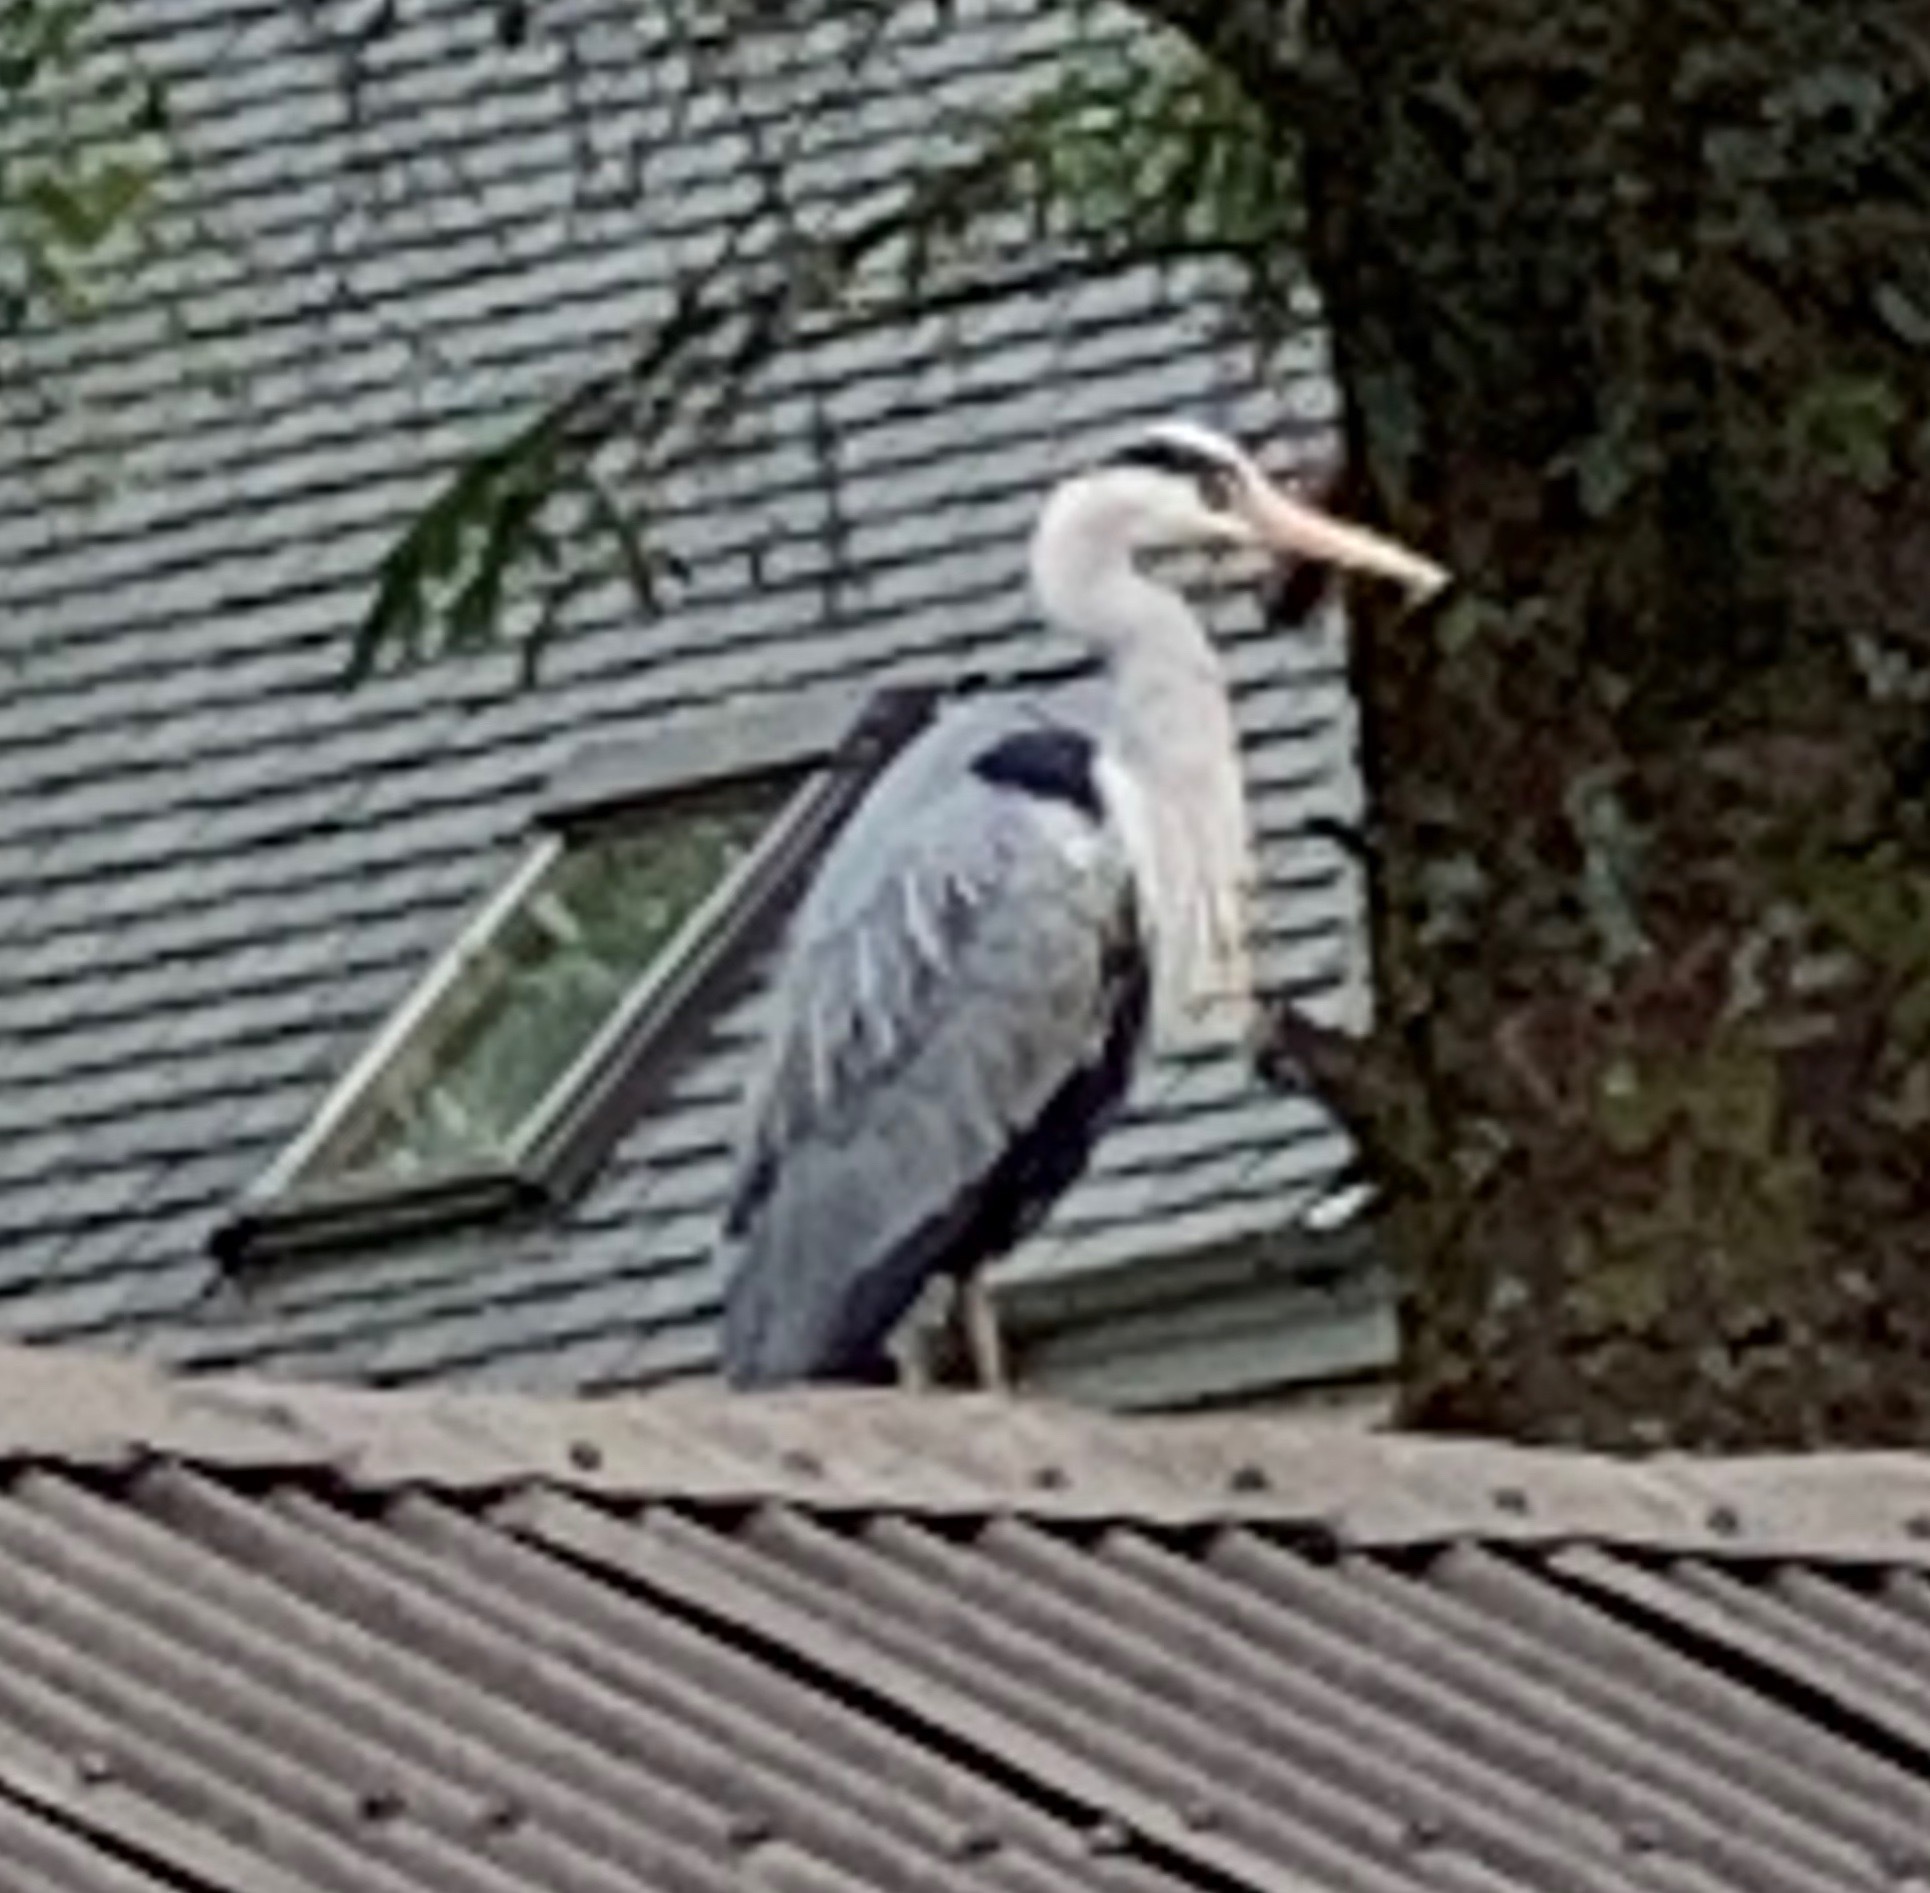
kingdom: Animalia
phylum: Chordata
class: Aves
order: Pelecaniformes
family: Ardeidae
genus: Ardea
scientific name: Ardea cinerea
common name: Grey heron
